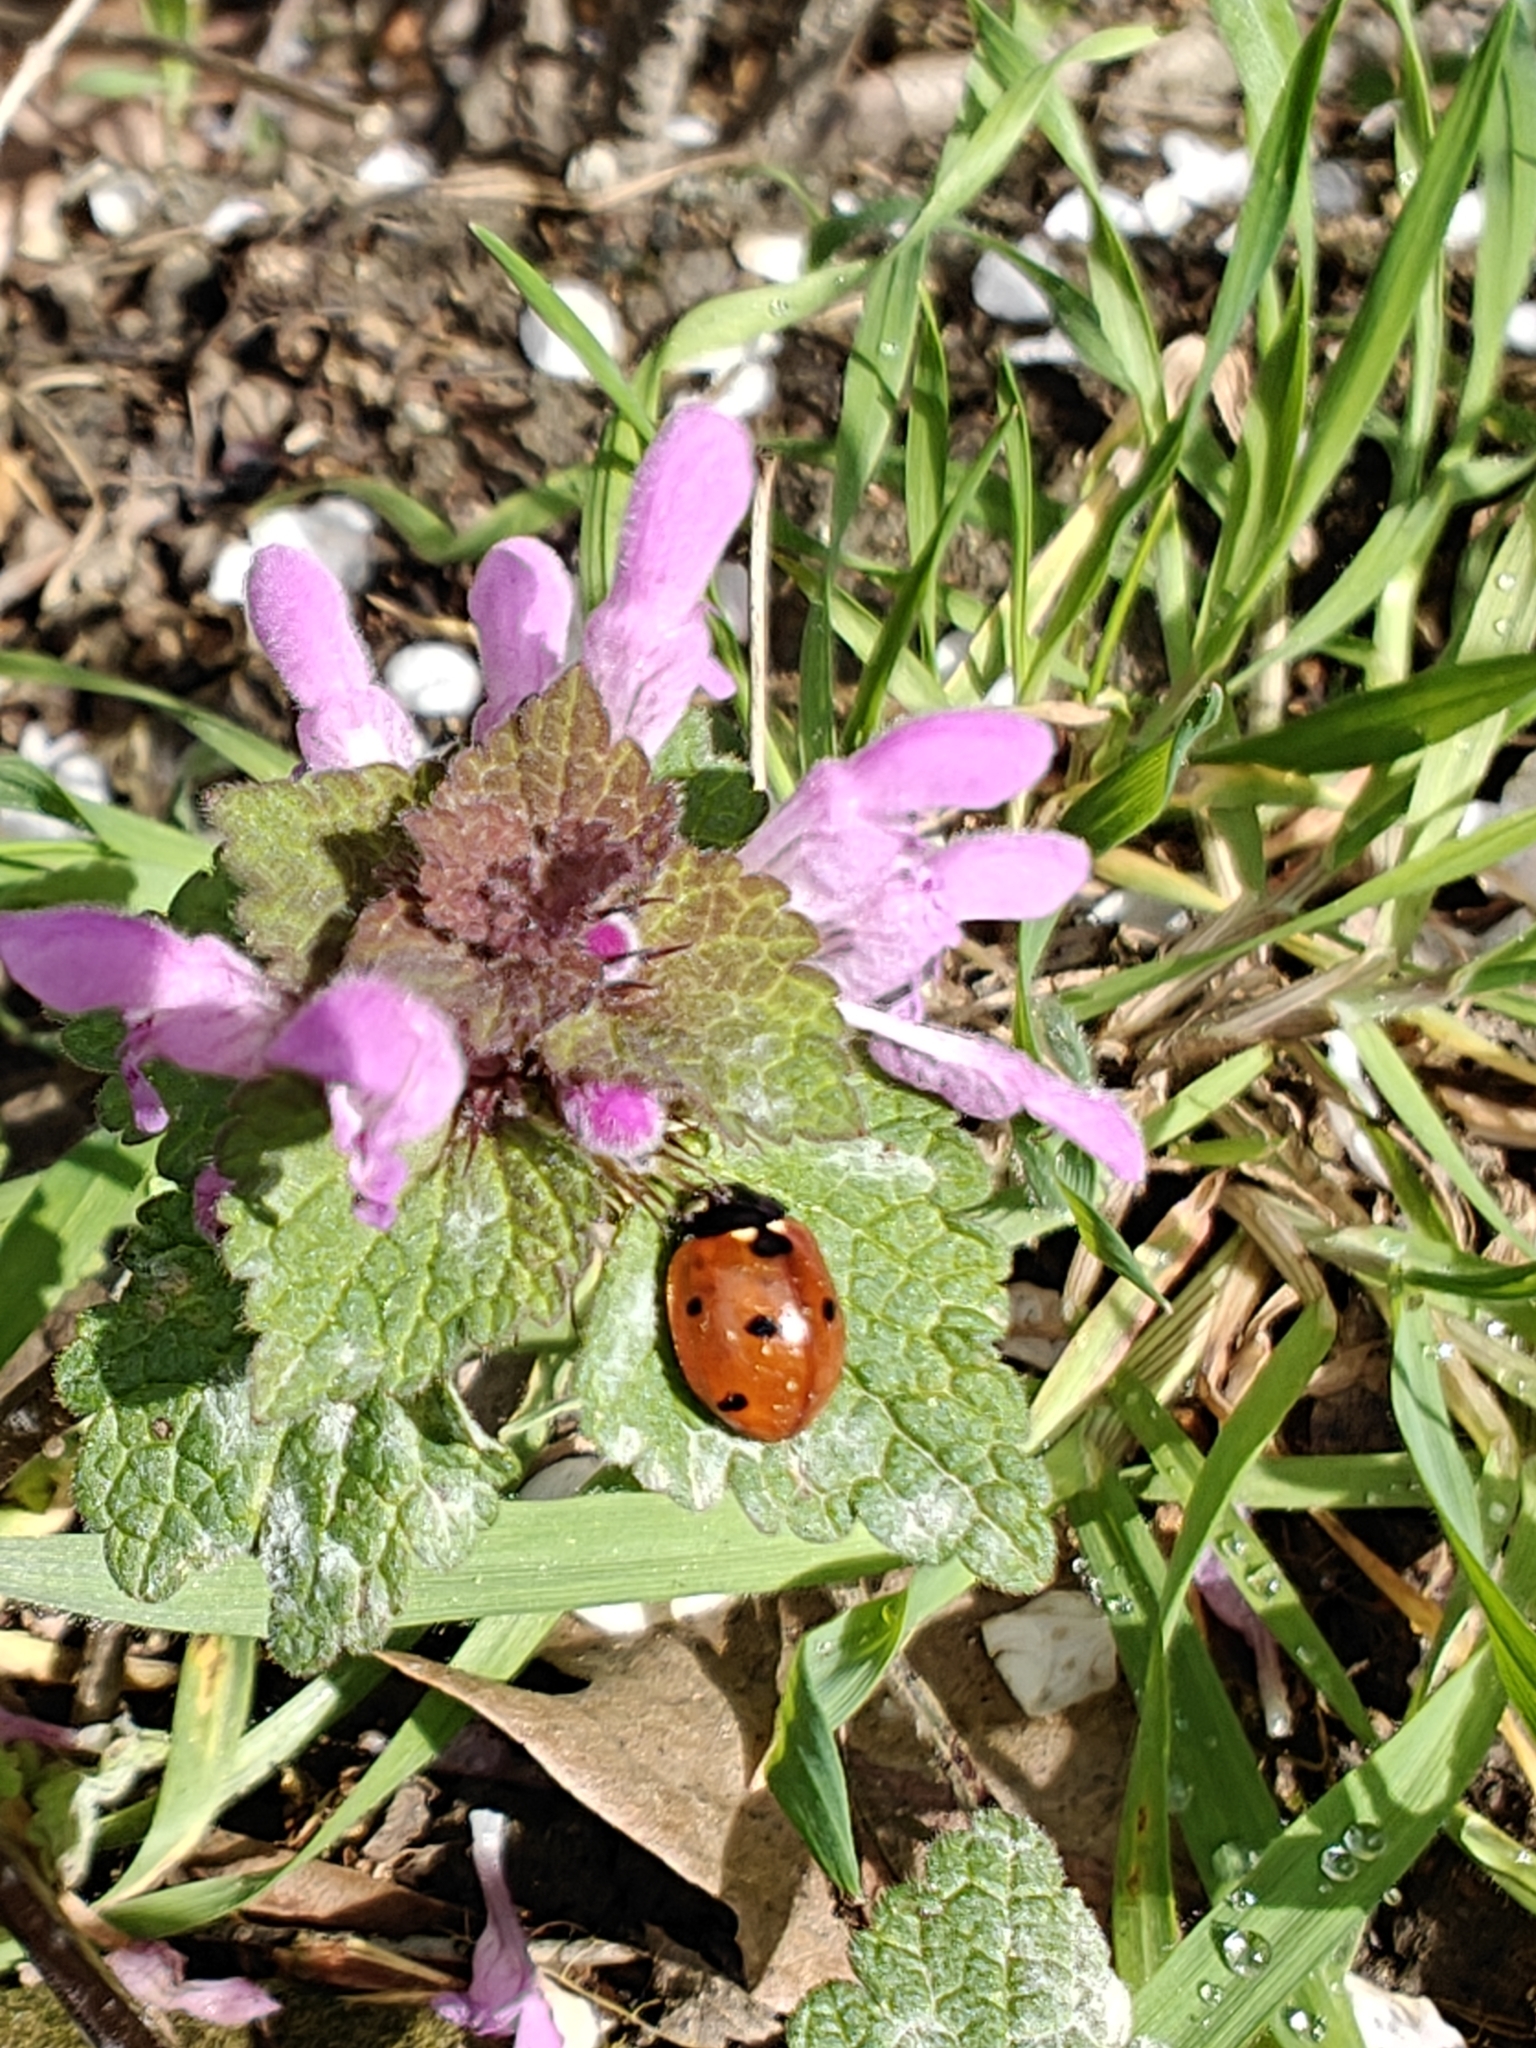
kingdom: Animalia
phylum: Arthropoda
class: Insecta
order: Coleoptera
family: Coccinellidae
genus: Coccinella
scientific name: Coccinella septempunctata
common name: Sevenspotted lady beetle
